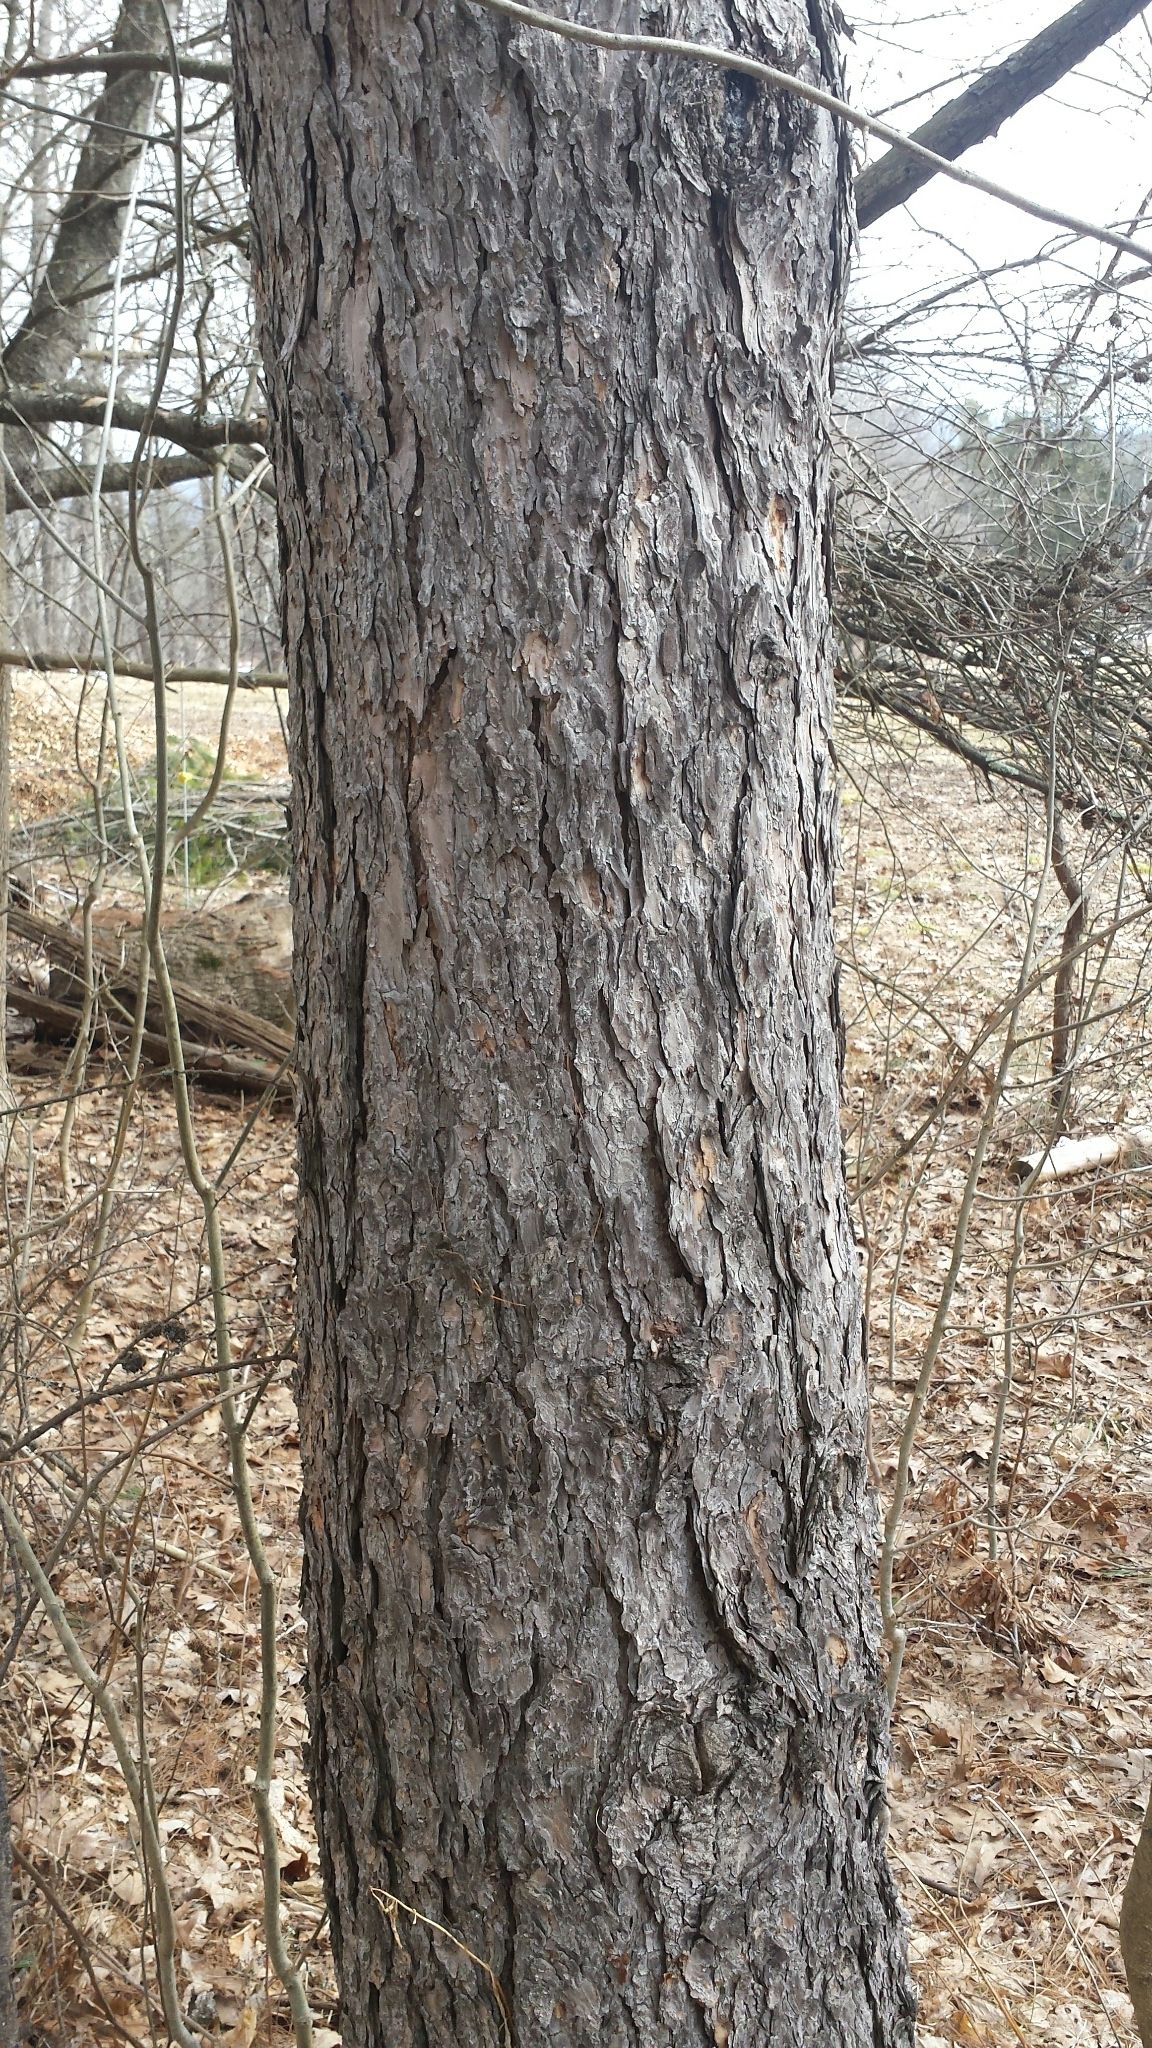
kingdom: Plantae
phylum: Tracheophyta
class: Pinopsida
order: Pinales
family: Pinaceae
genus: Larix
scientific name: Larix decidua
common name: European larch
